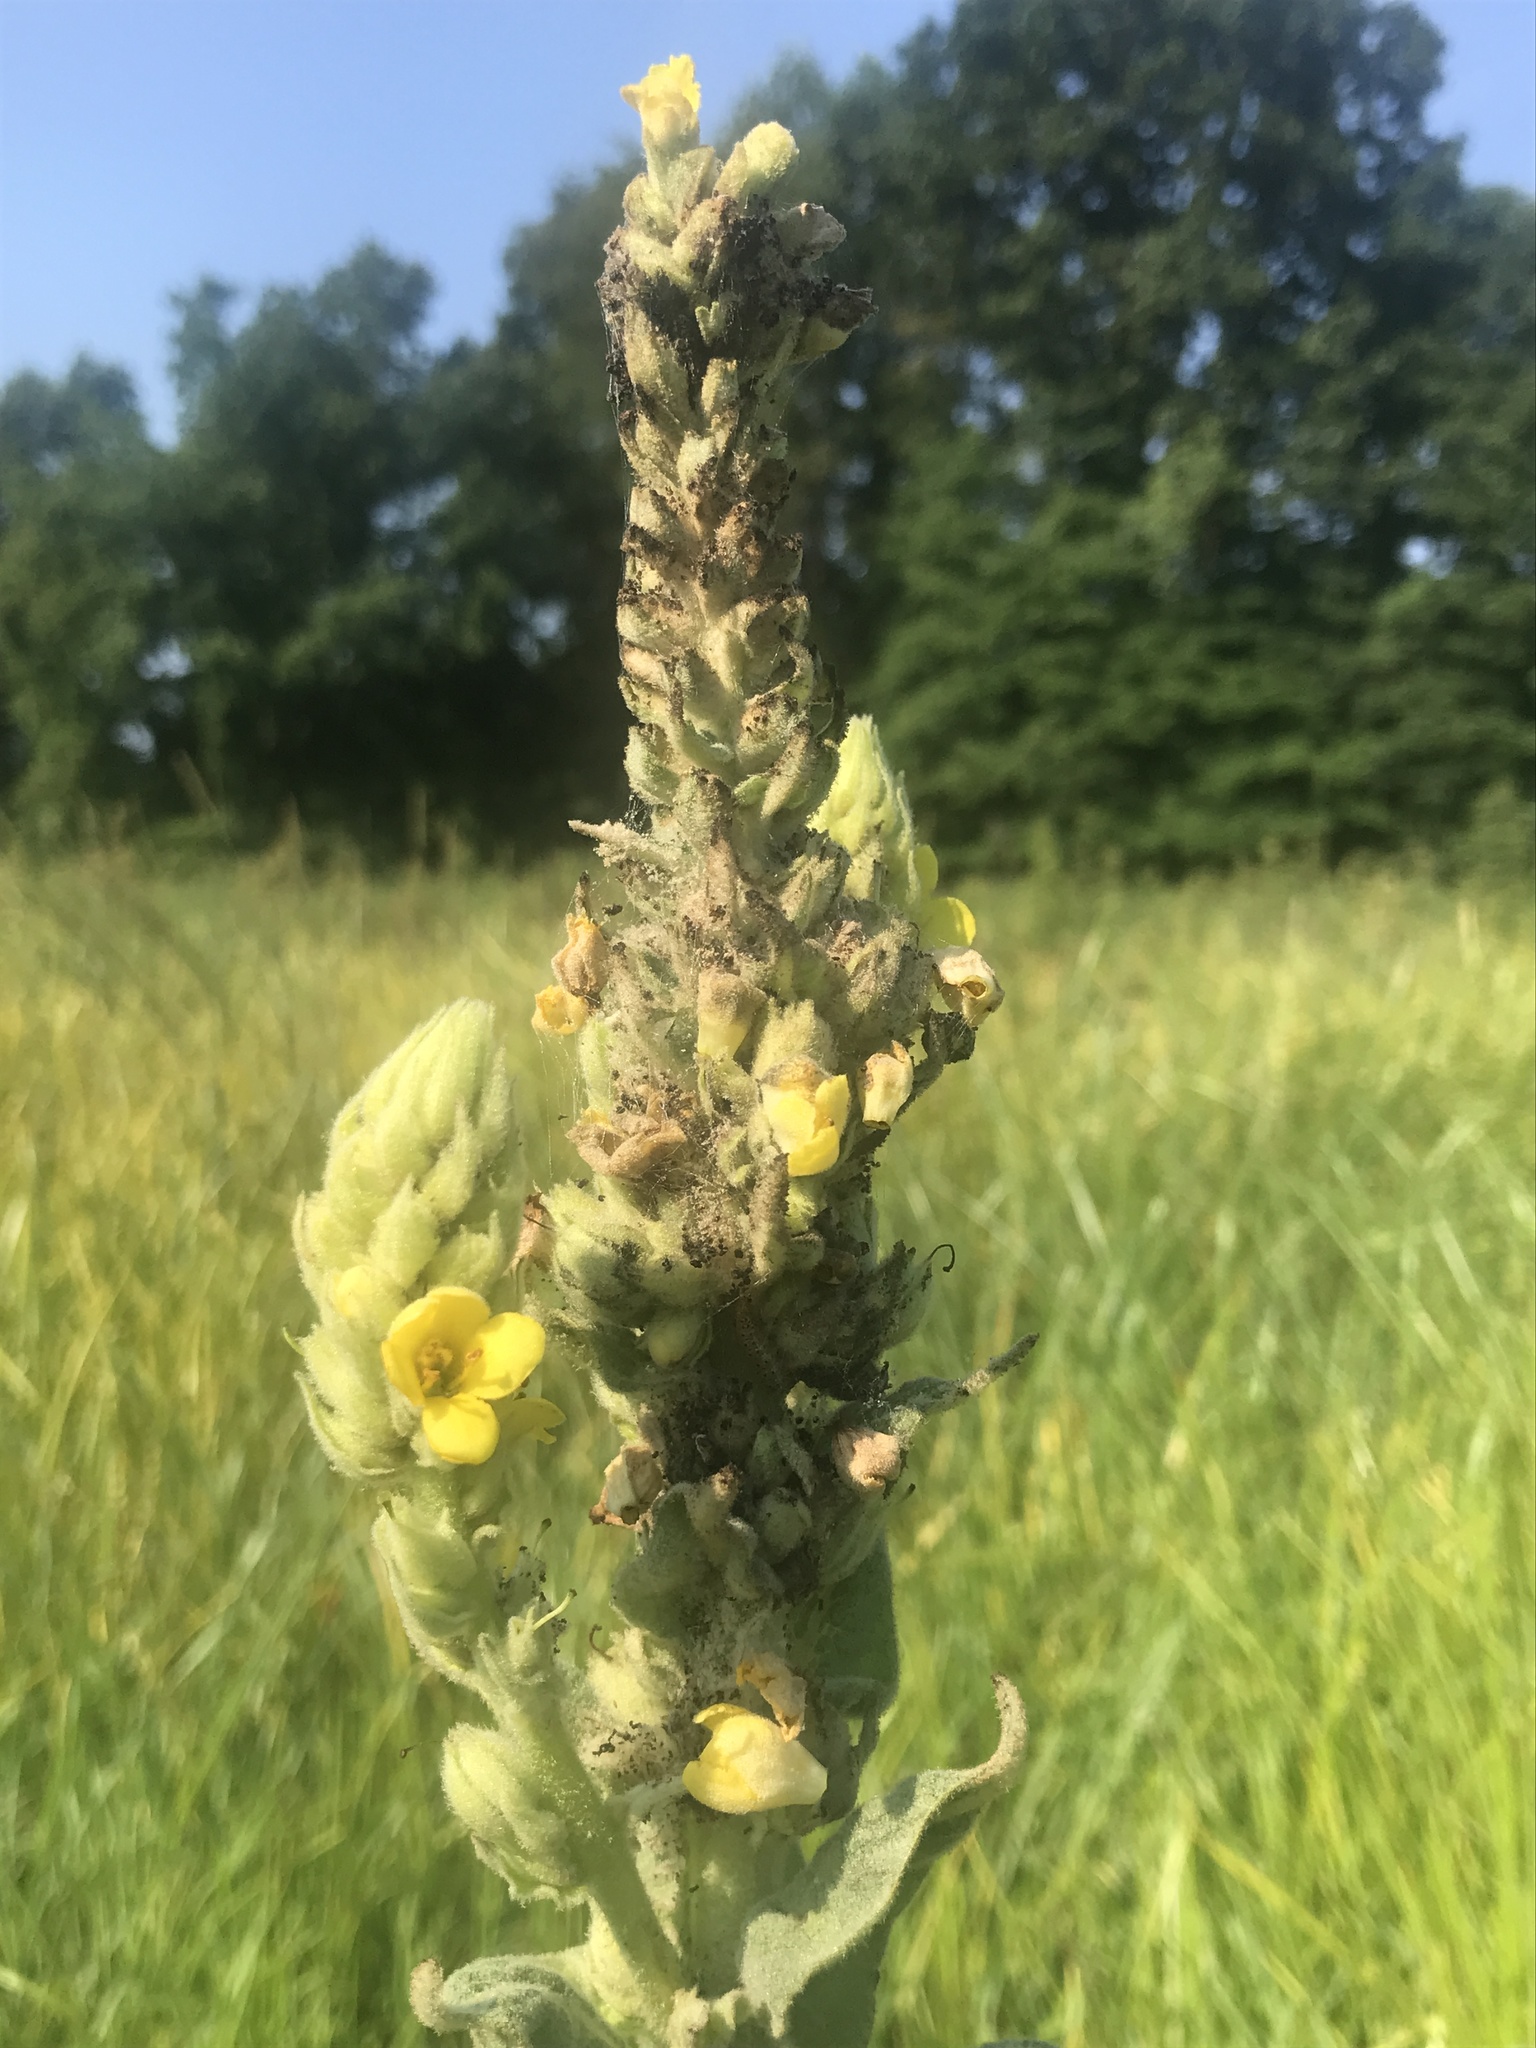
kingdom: Plantae
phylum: Tracheophyta
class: Magnoliopsida
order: Lamiales
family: Scrophulariaceae
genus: Verbascum
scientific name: Verbascum thapsus
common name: Common mullein
